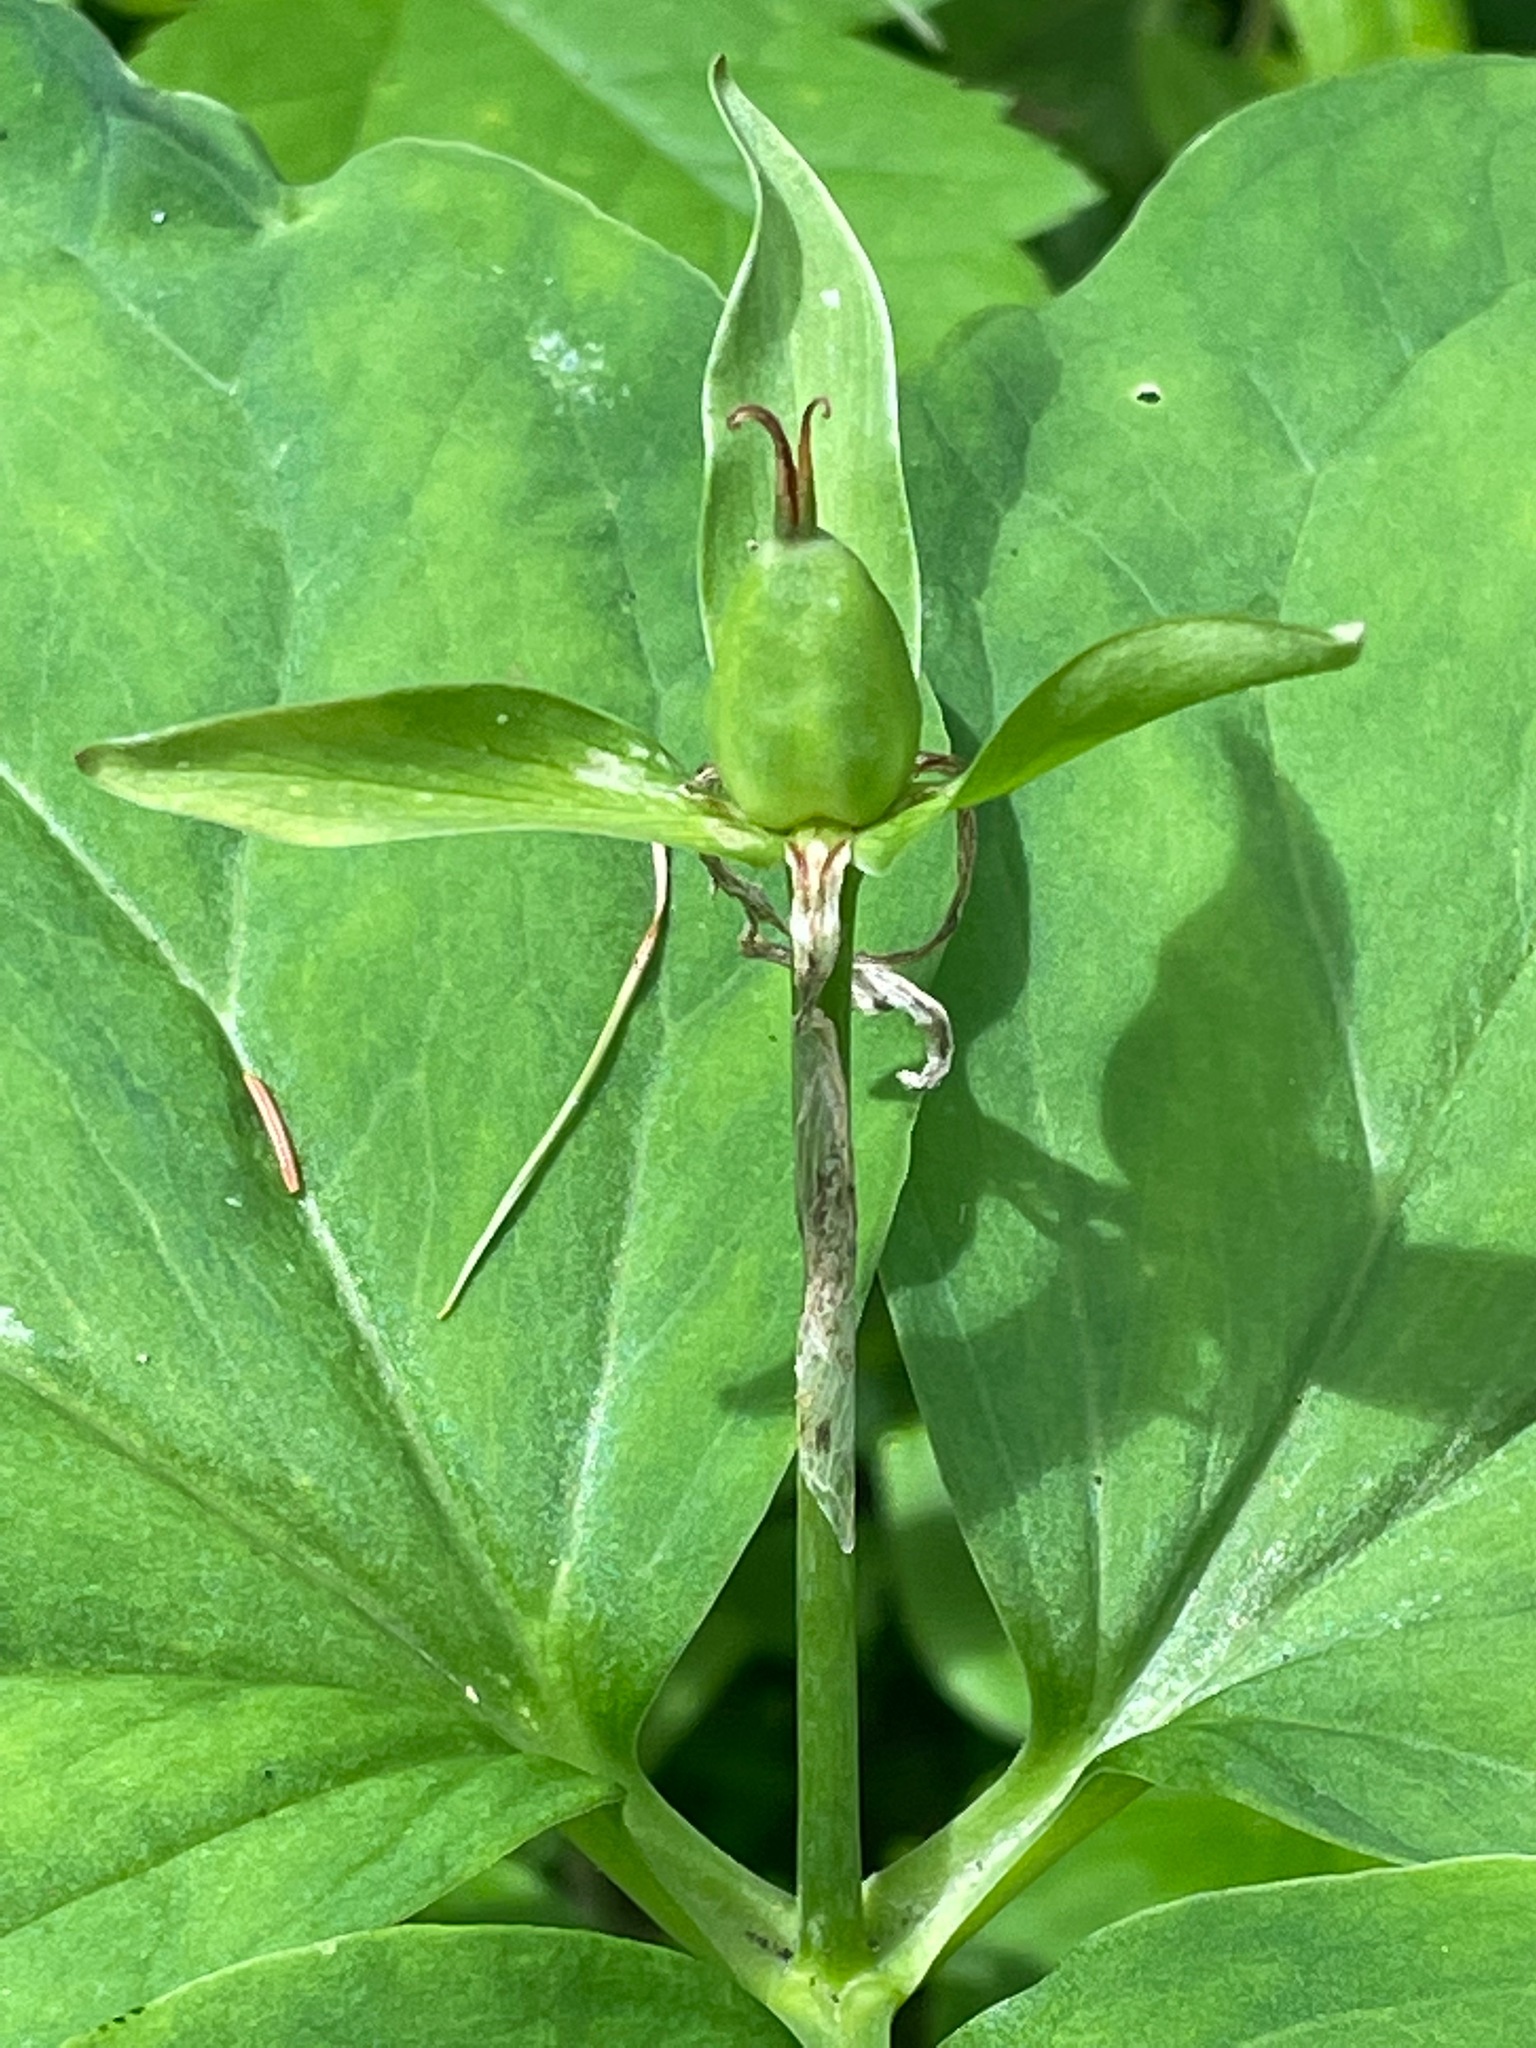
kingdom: Plantae
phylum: Tracheophyta
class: Liliopsida
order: Liliales
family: Melanthiaceae
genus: Trillium
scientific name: Trillium undulatum
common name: Paint trillium
